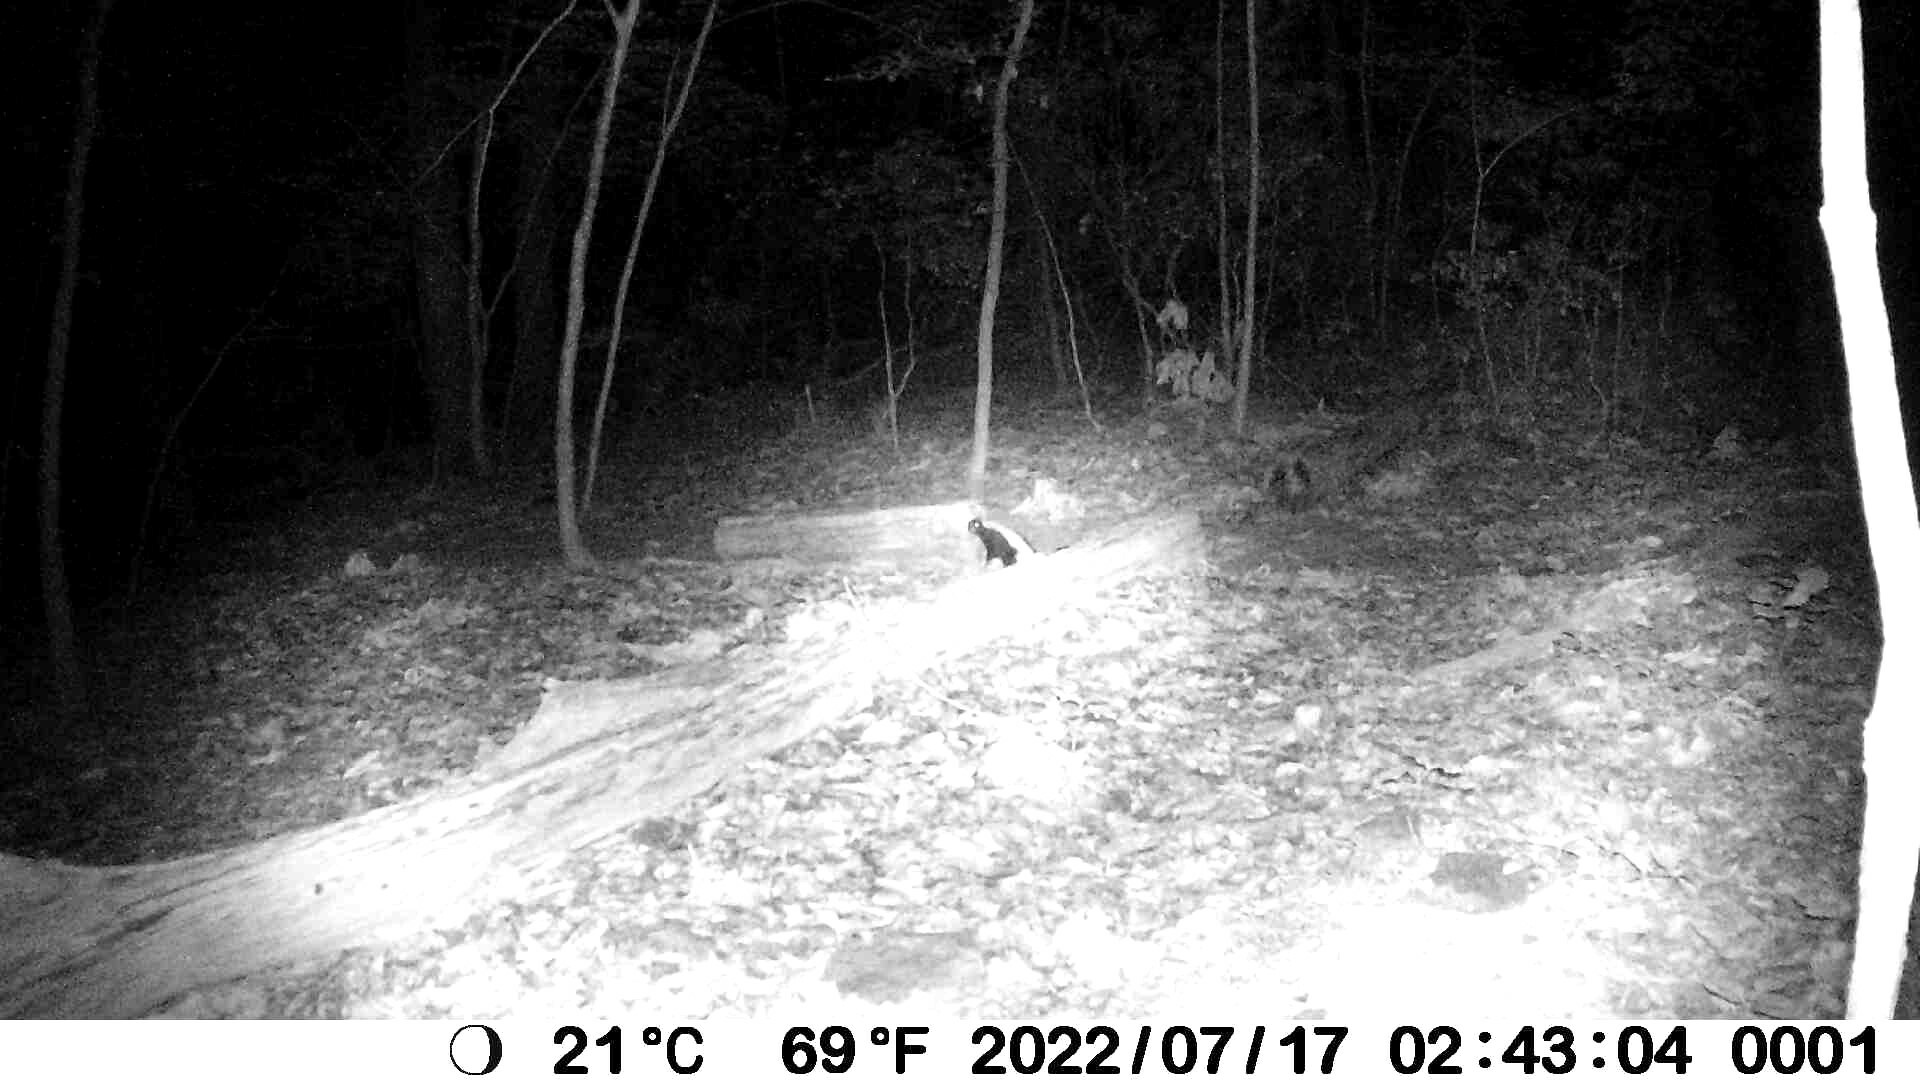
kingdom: Animalia
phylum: Chordata
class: Mammalia
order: Carnivora
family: Mephitidae
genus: Mephitis
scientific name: Mephitis mephitis
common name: Striped skunk
